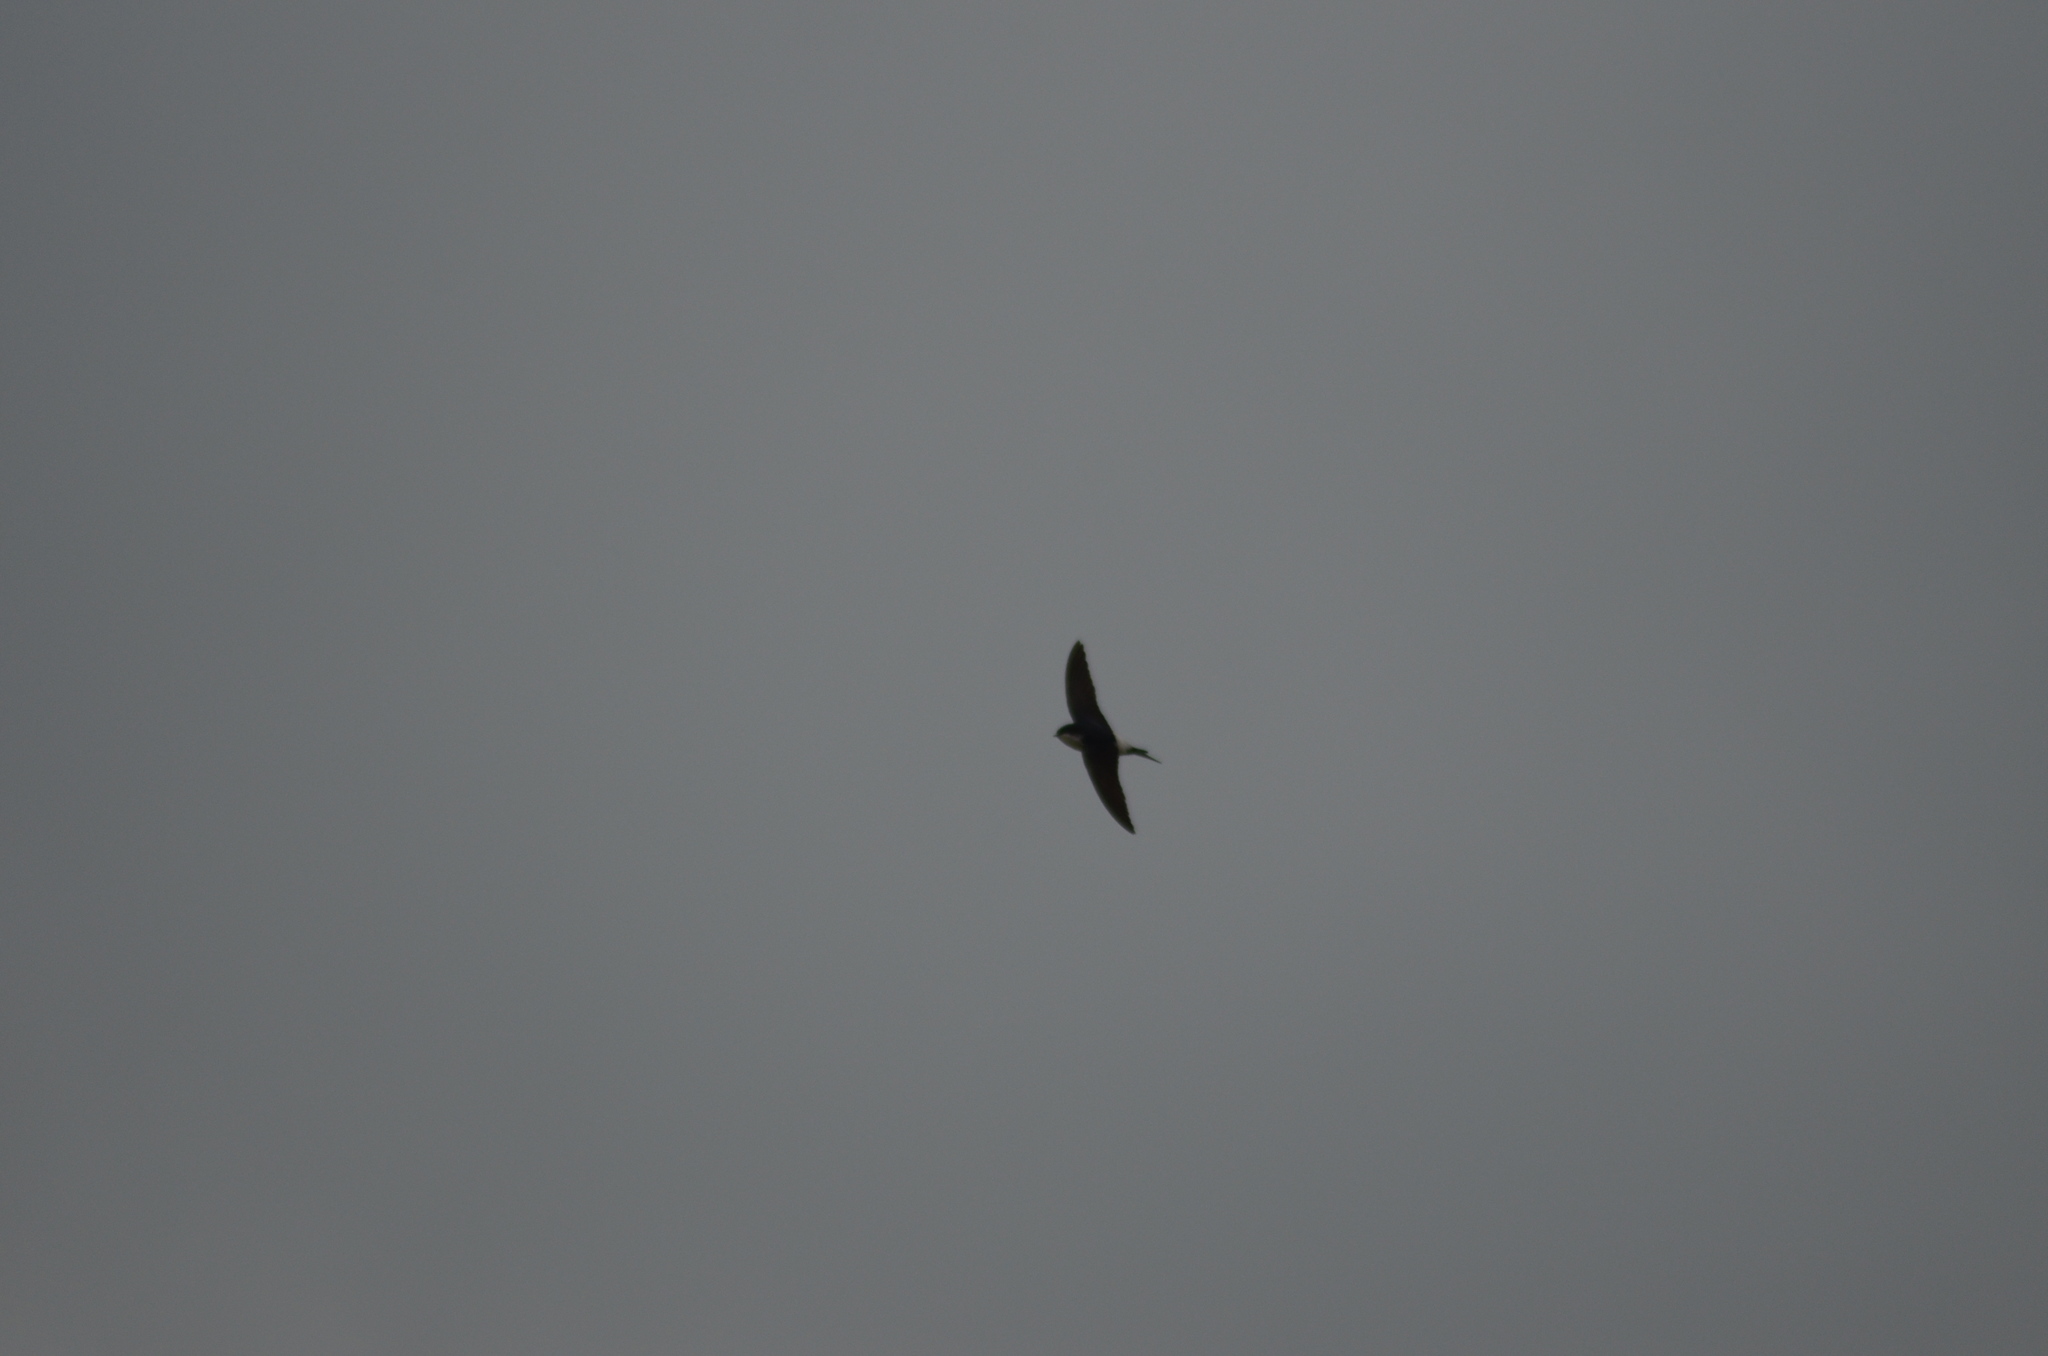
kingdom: Animalia
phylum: Chordata
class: Aves
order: Passeriformes
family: Hirundinidae
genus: Delichon
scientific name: Delichon urbicum
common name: Common house martin
